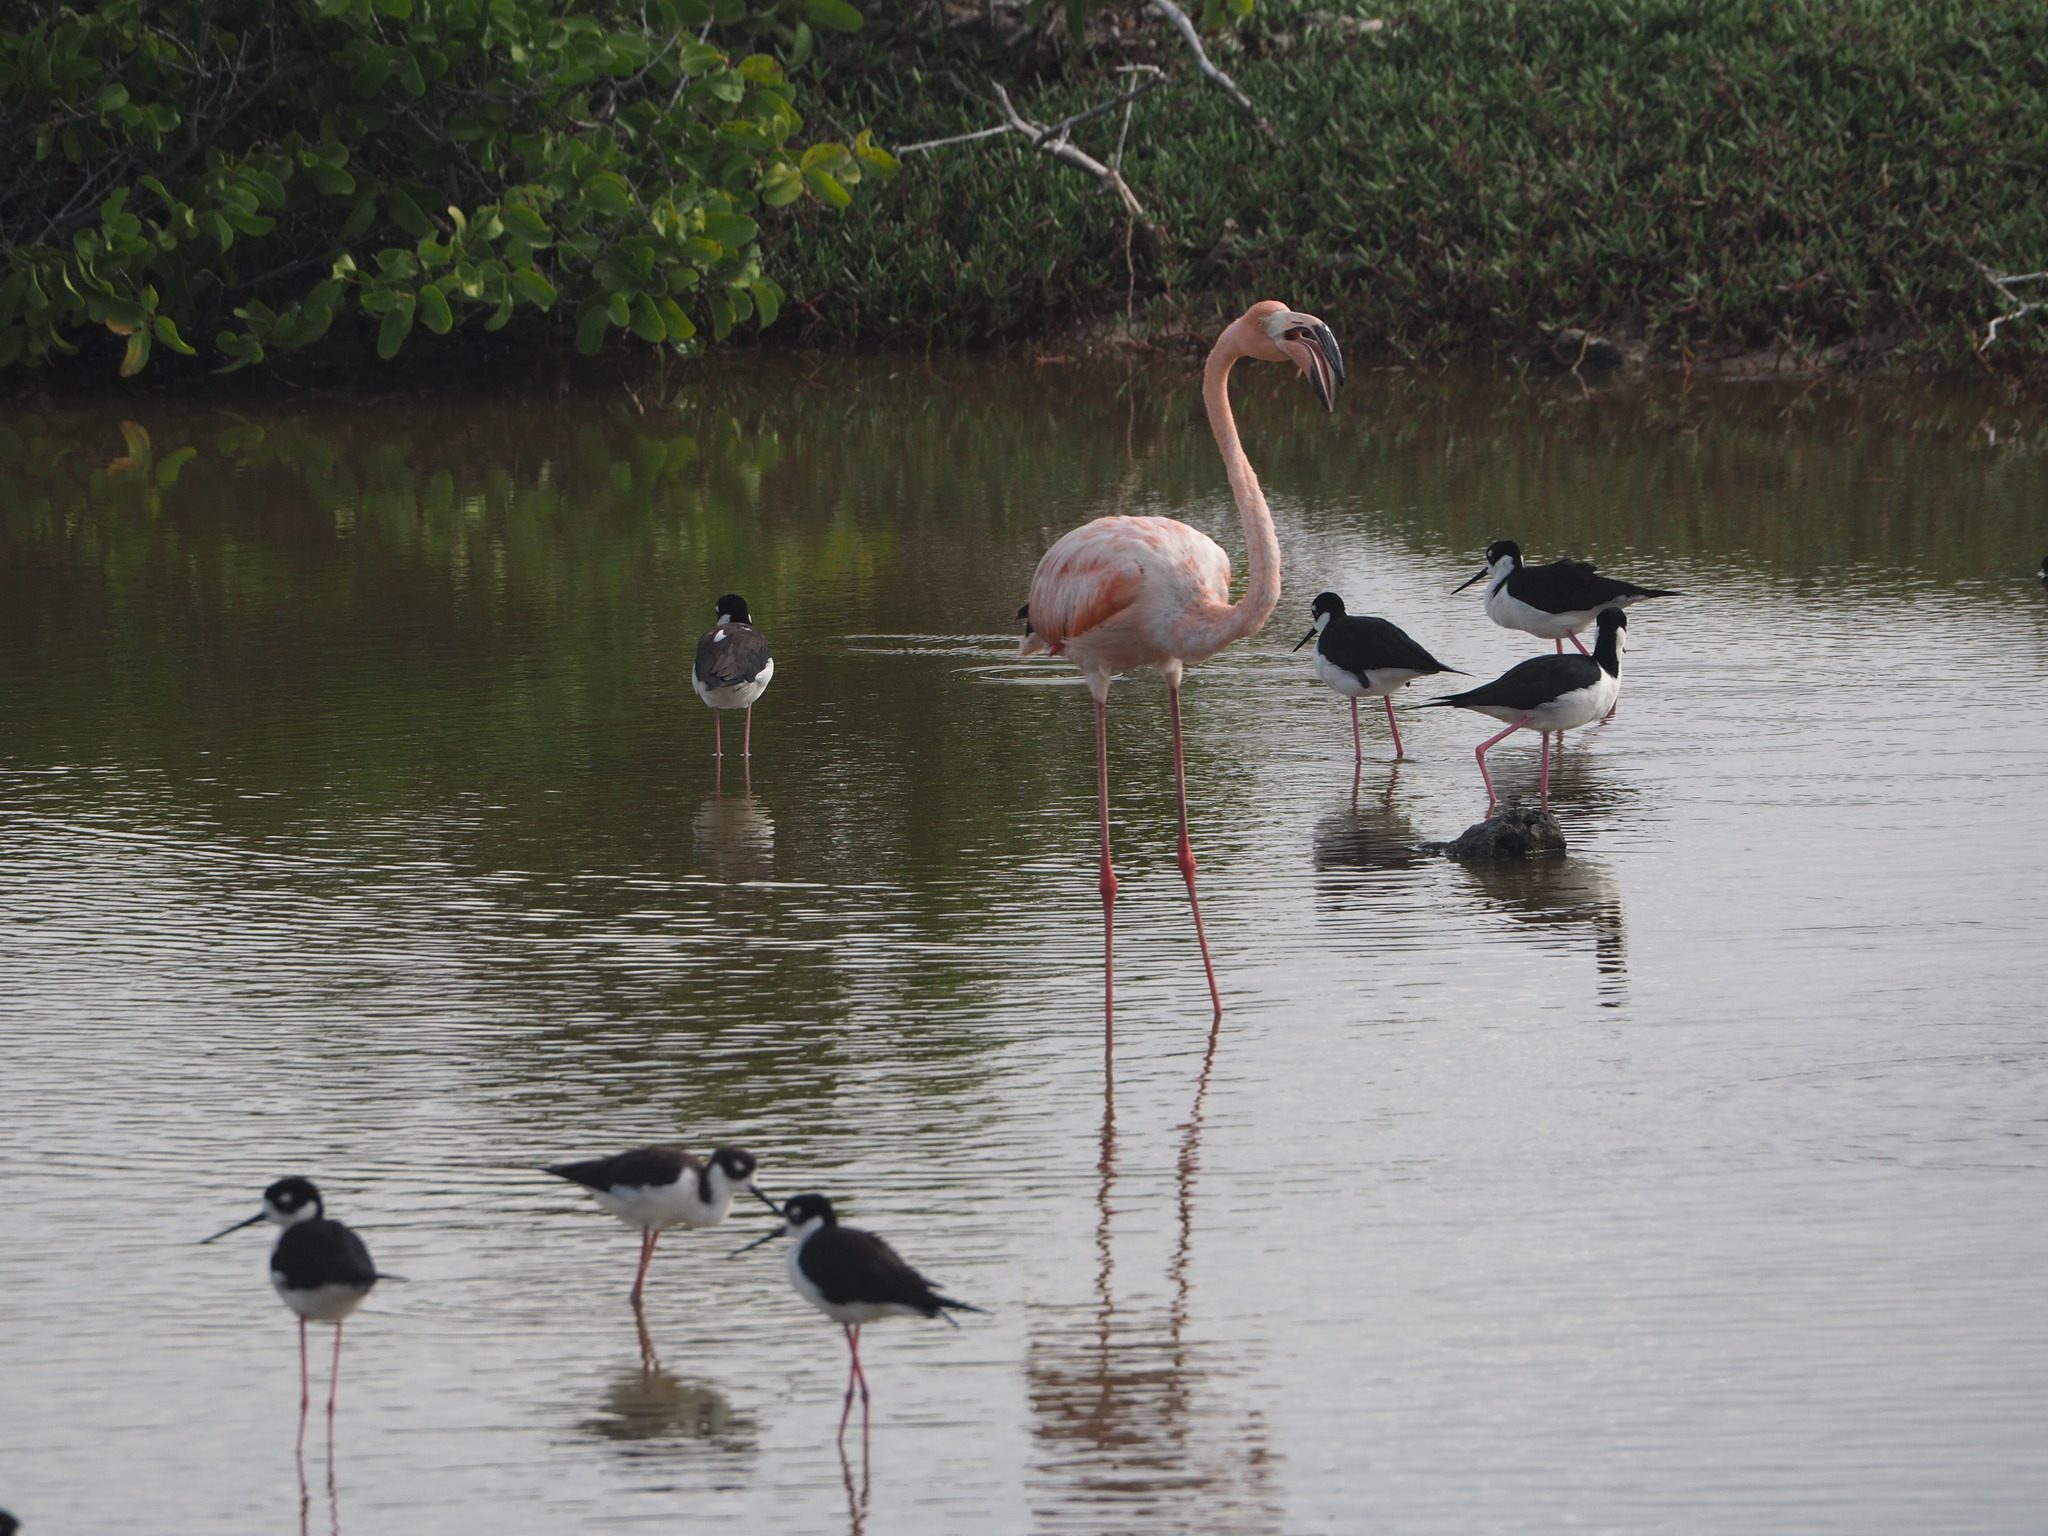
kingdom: Animalia
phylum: Chordata
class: Aves
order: Phoenicopteriformes
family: Phoenicopteridae
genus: Phoenicopterus
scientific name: Phoenicopterus ruber
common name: American flamingo
